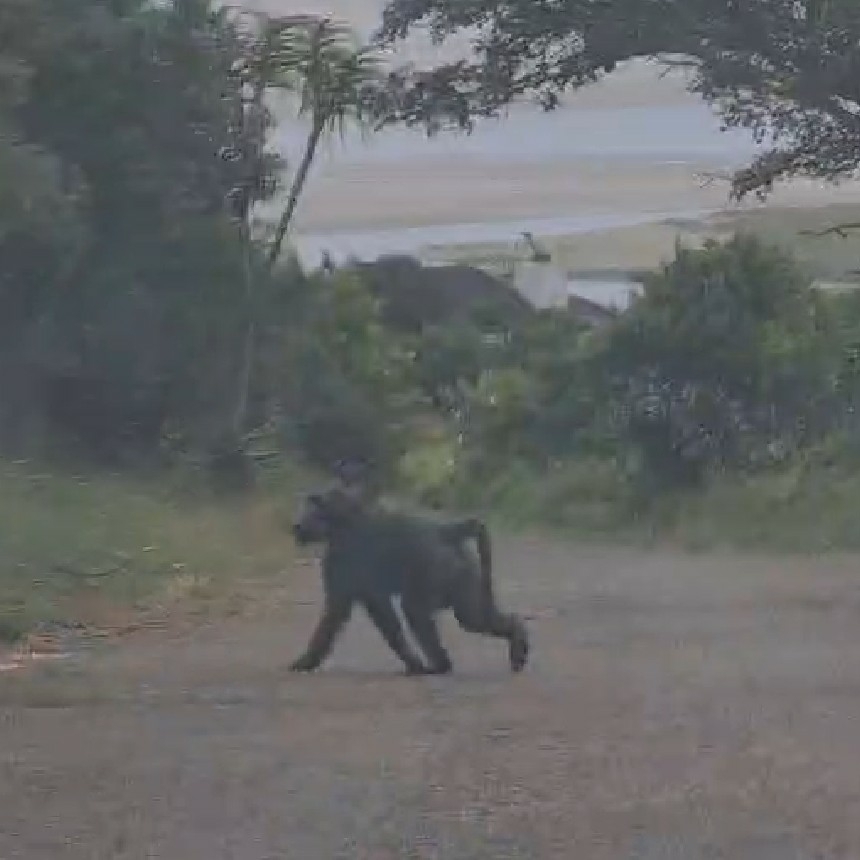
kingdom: Animalia
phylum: Chordata
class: Mammalia
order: Primates
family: Cercopithecidae
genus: Papio
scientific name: Papio ursinus
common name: Chacma baboon
